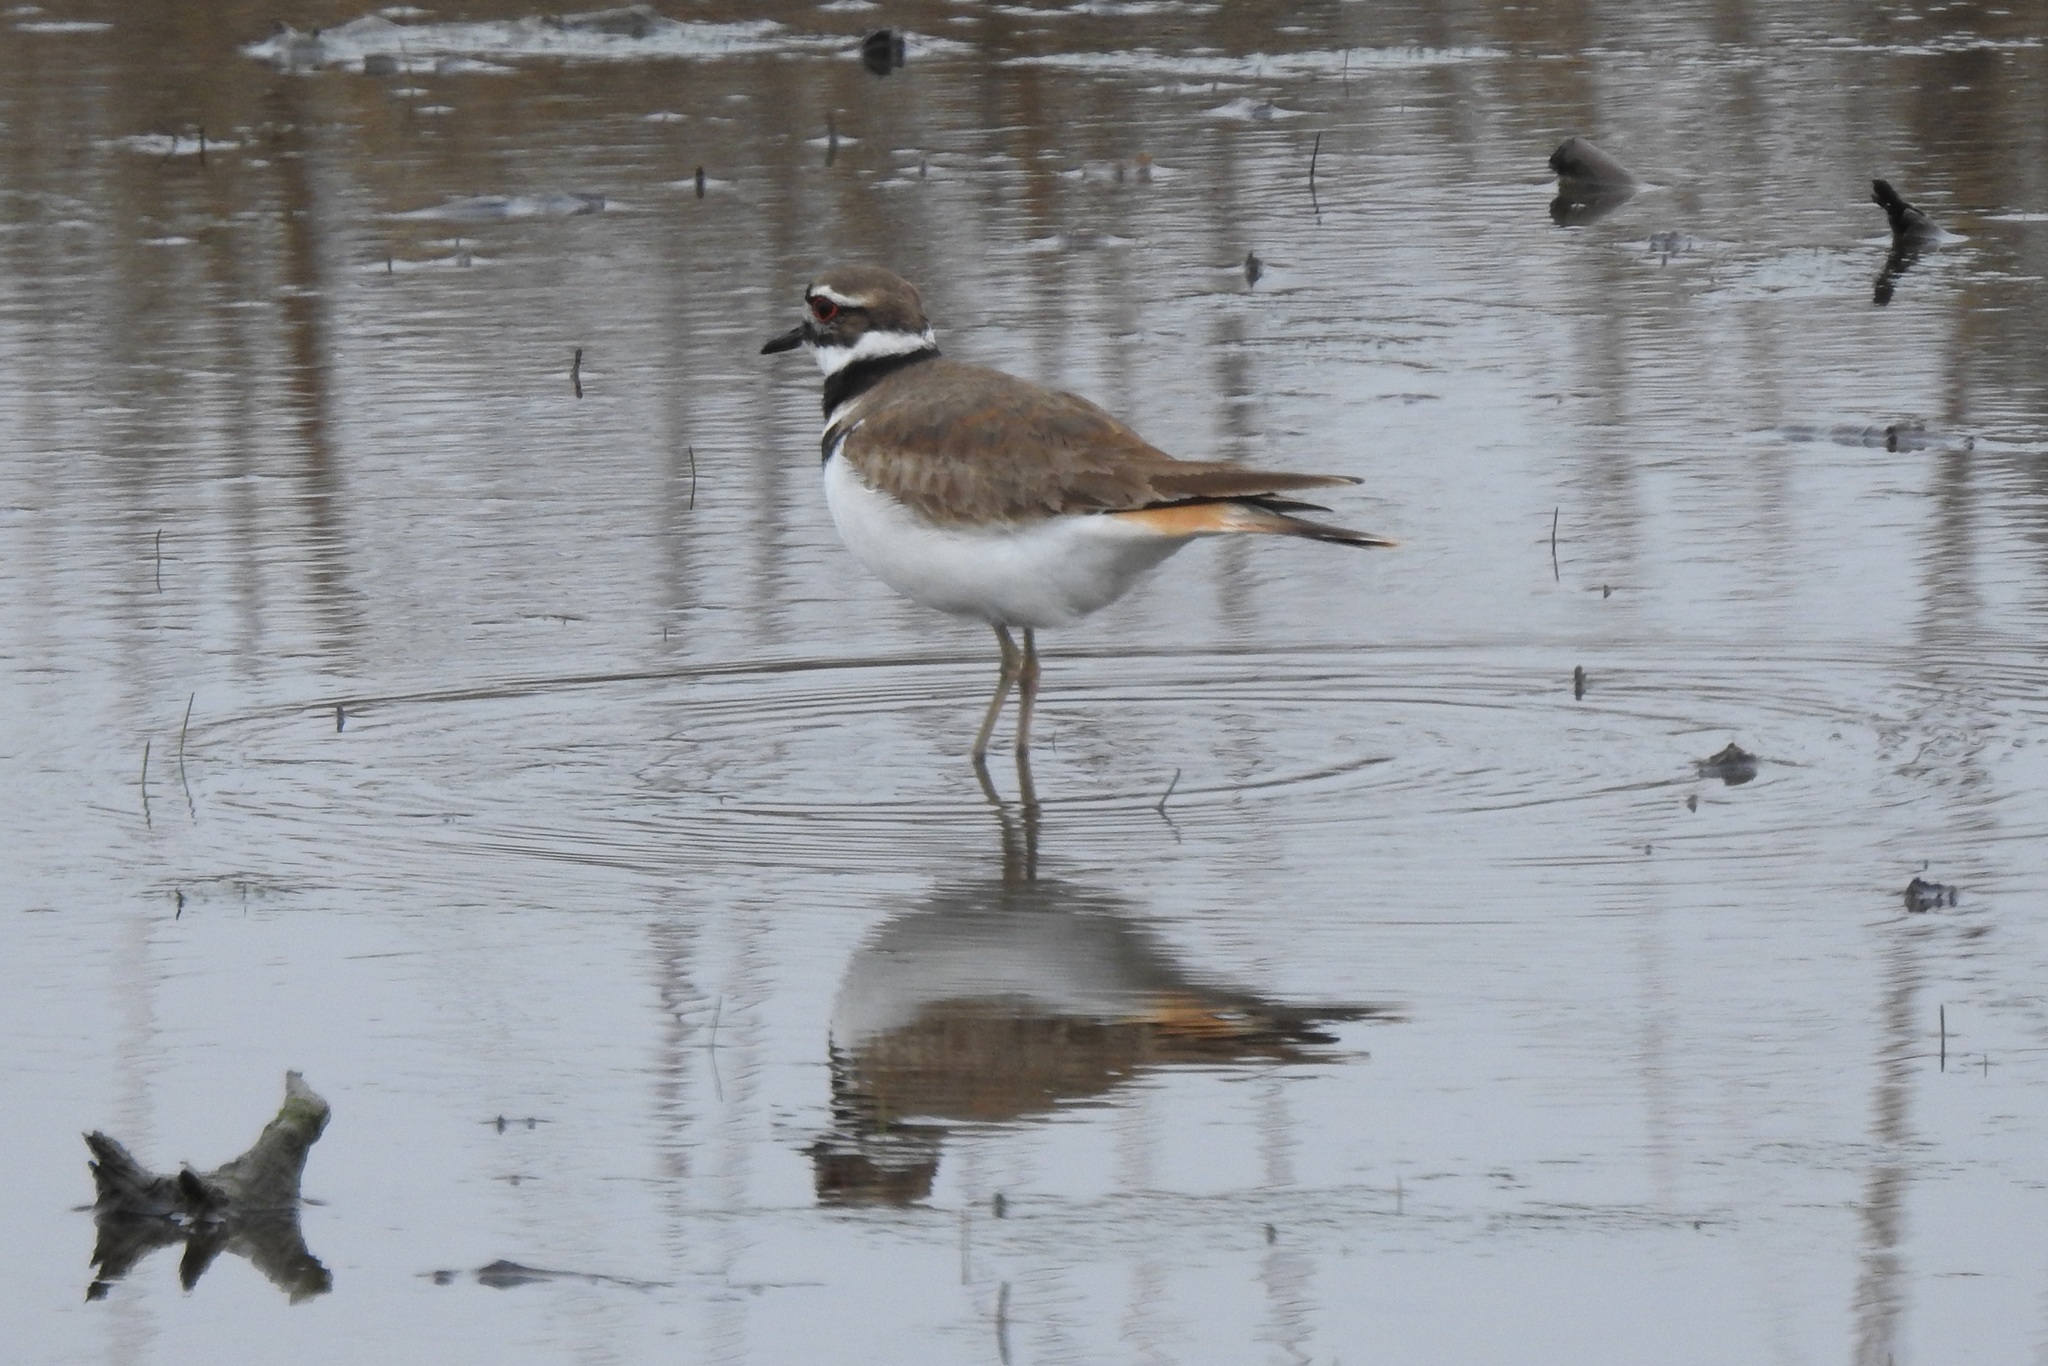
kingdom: Animalia
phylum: Chordata
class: Aves
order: Charadriiformes
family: Charadriidae
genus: Charadrius
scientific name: Charadrius vociferus
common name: Killdeer
